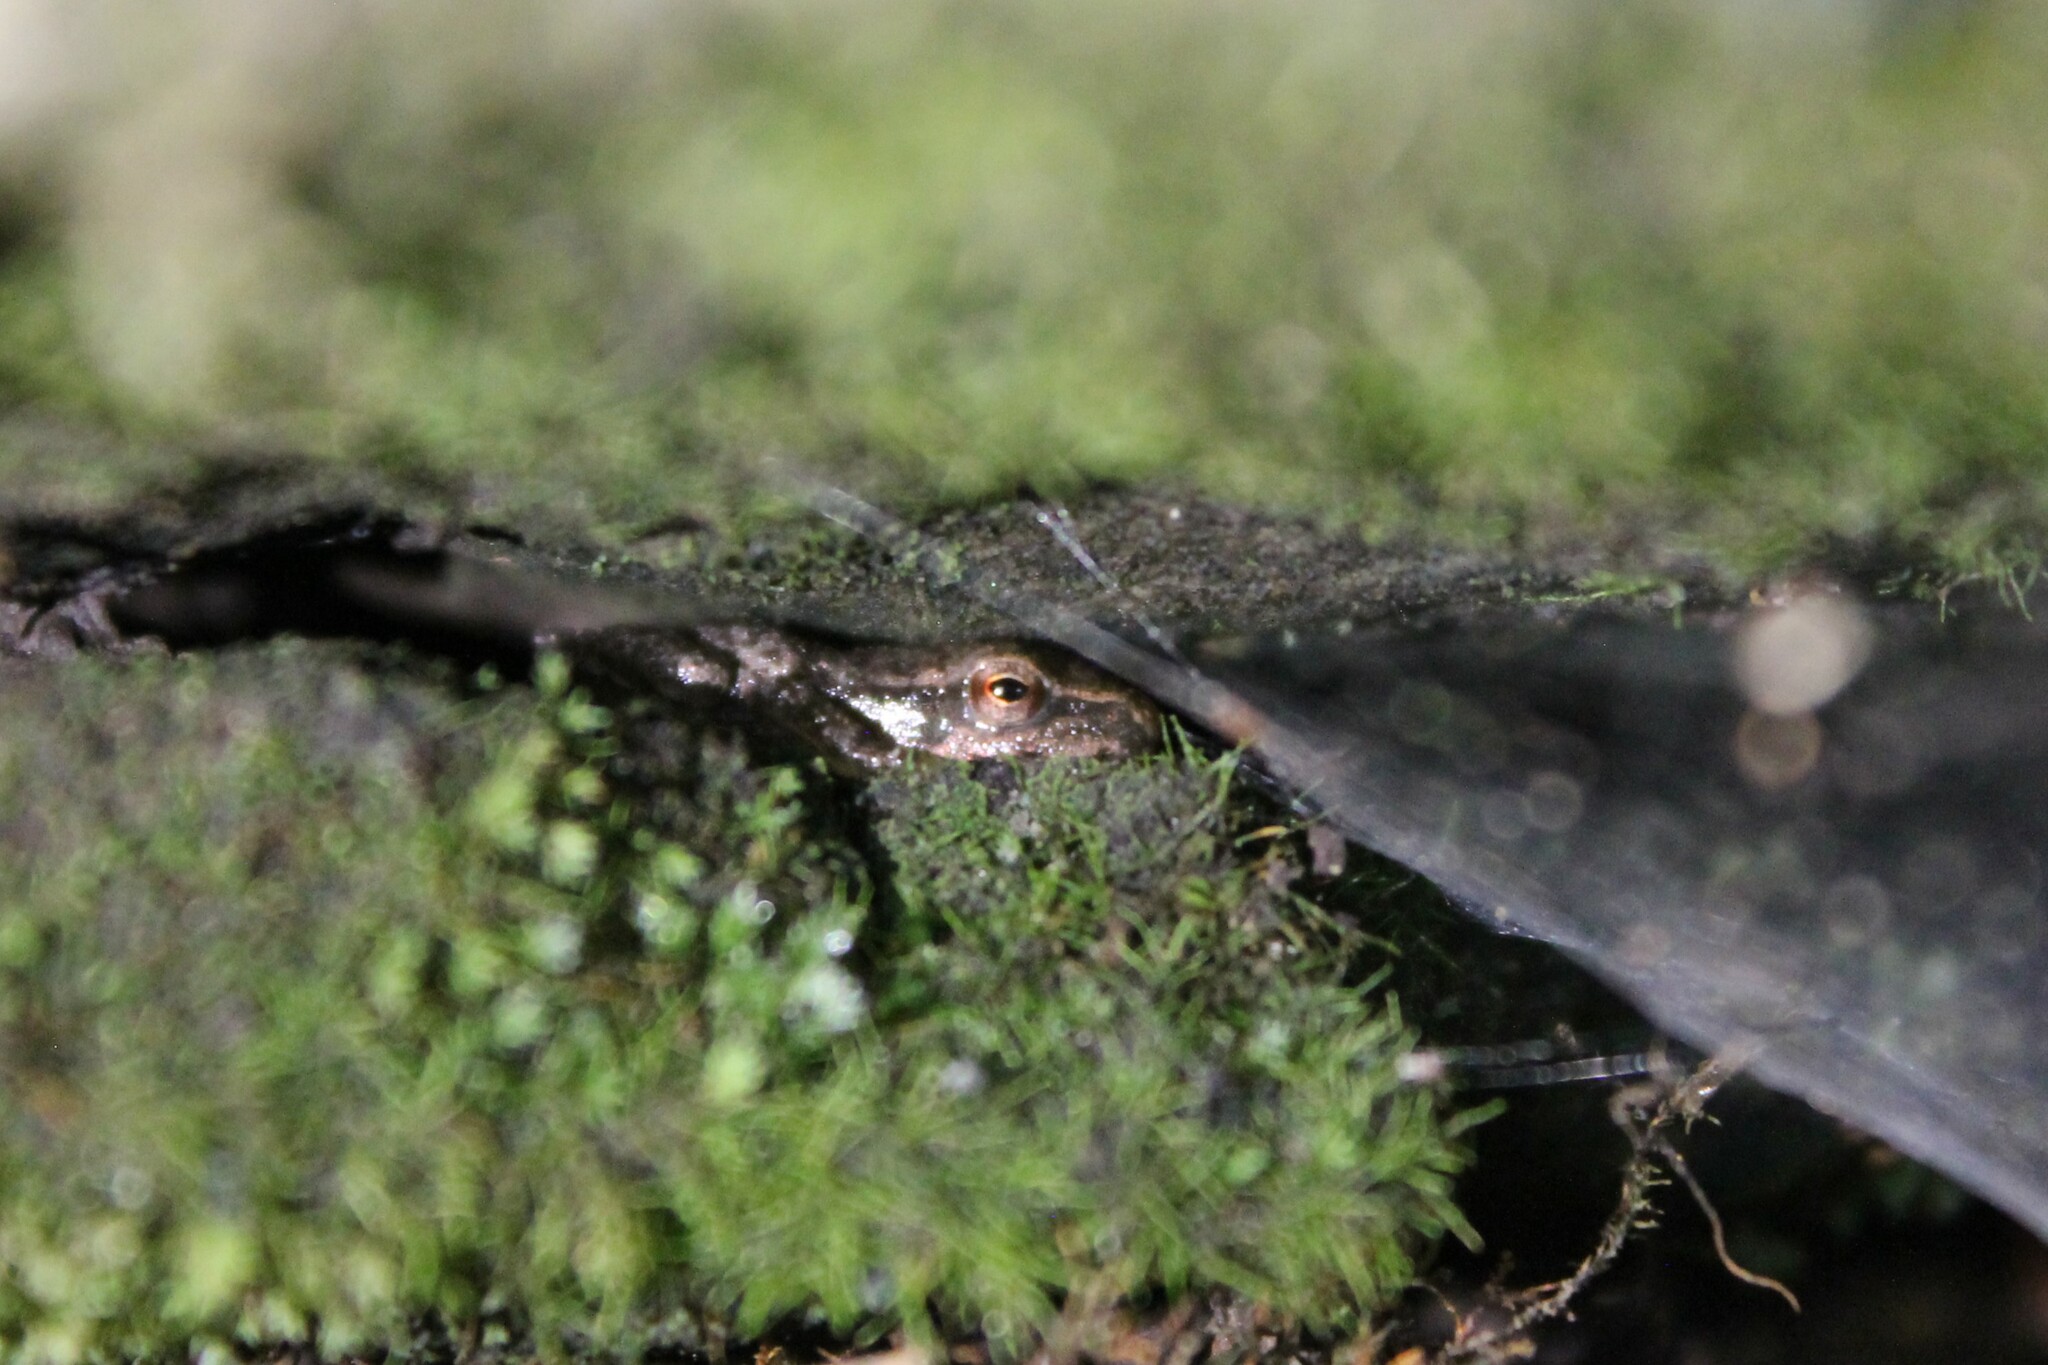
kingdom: Animalia
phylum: Chordata
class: Amphibia
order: Anura
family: Hylidae
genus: Pseudacris
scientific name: Pseudacris crucifer
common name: Spring peeper
